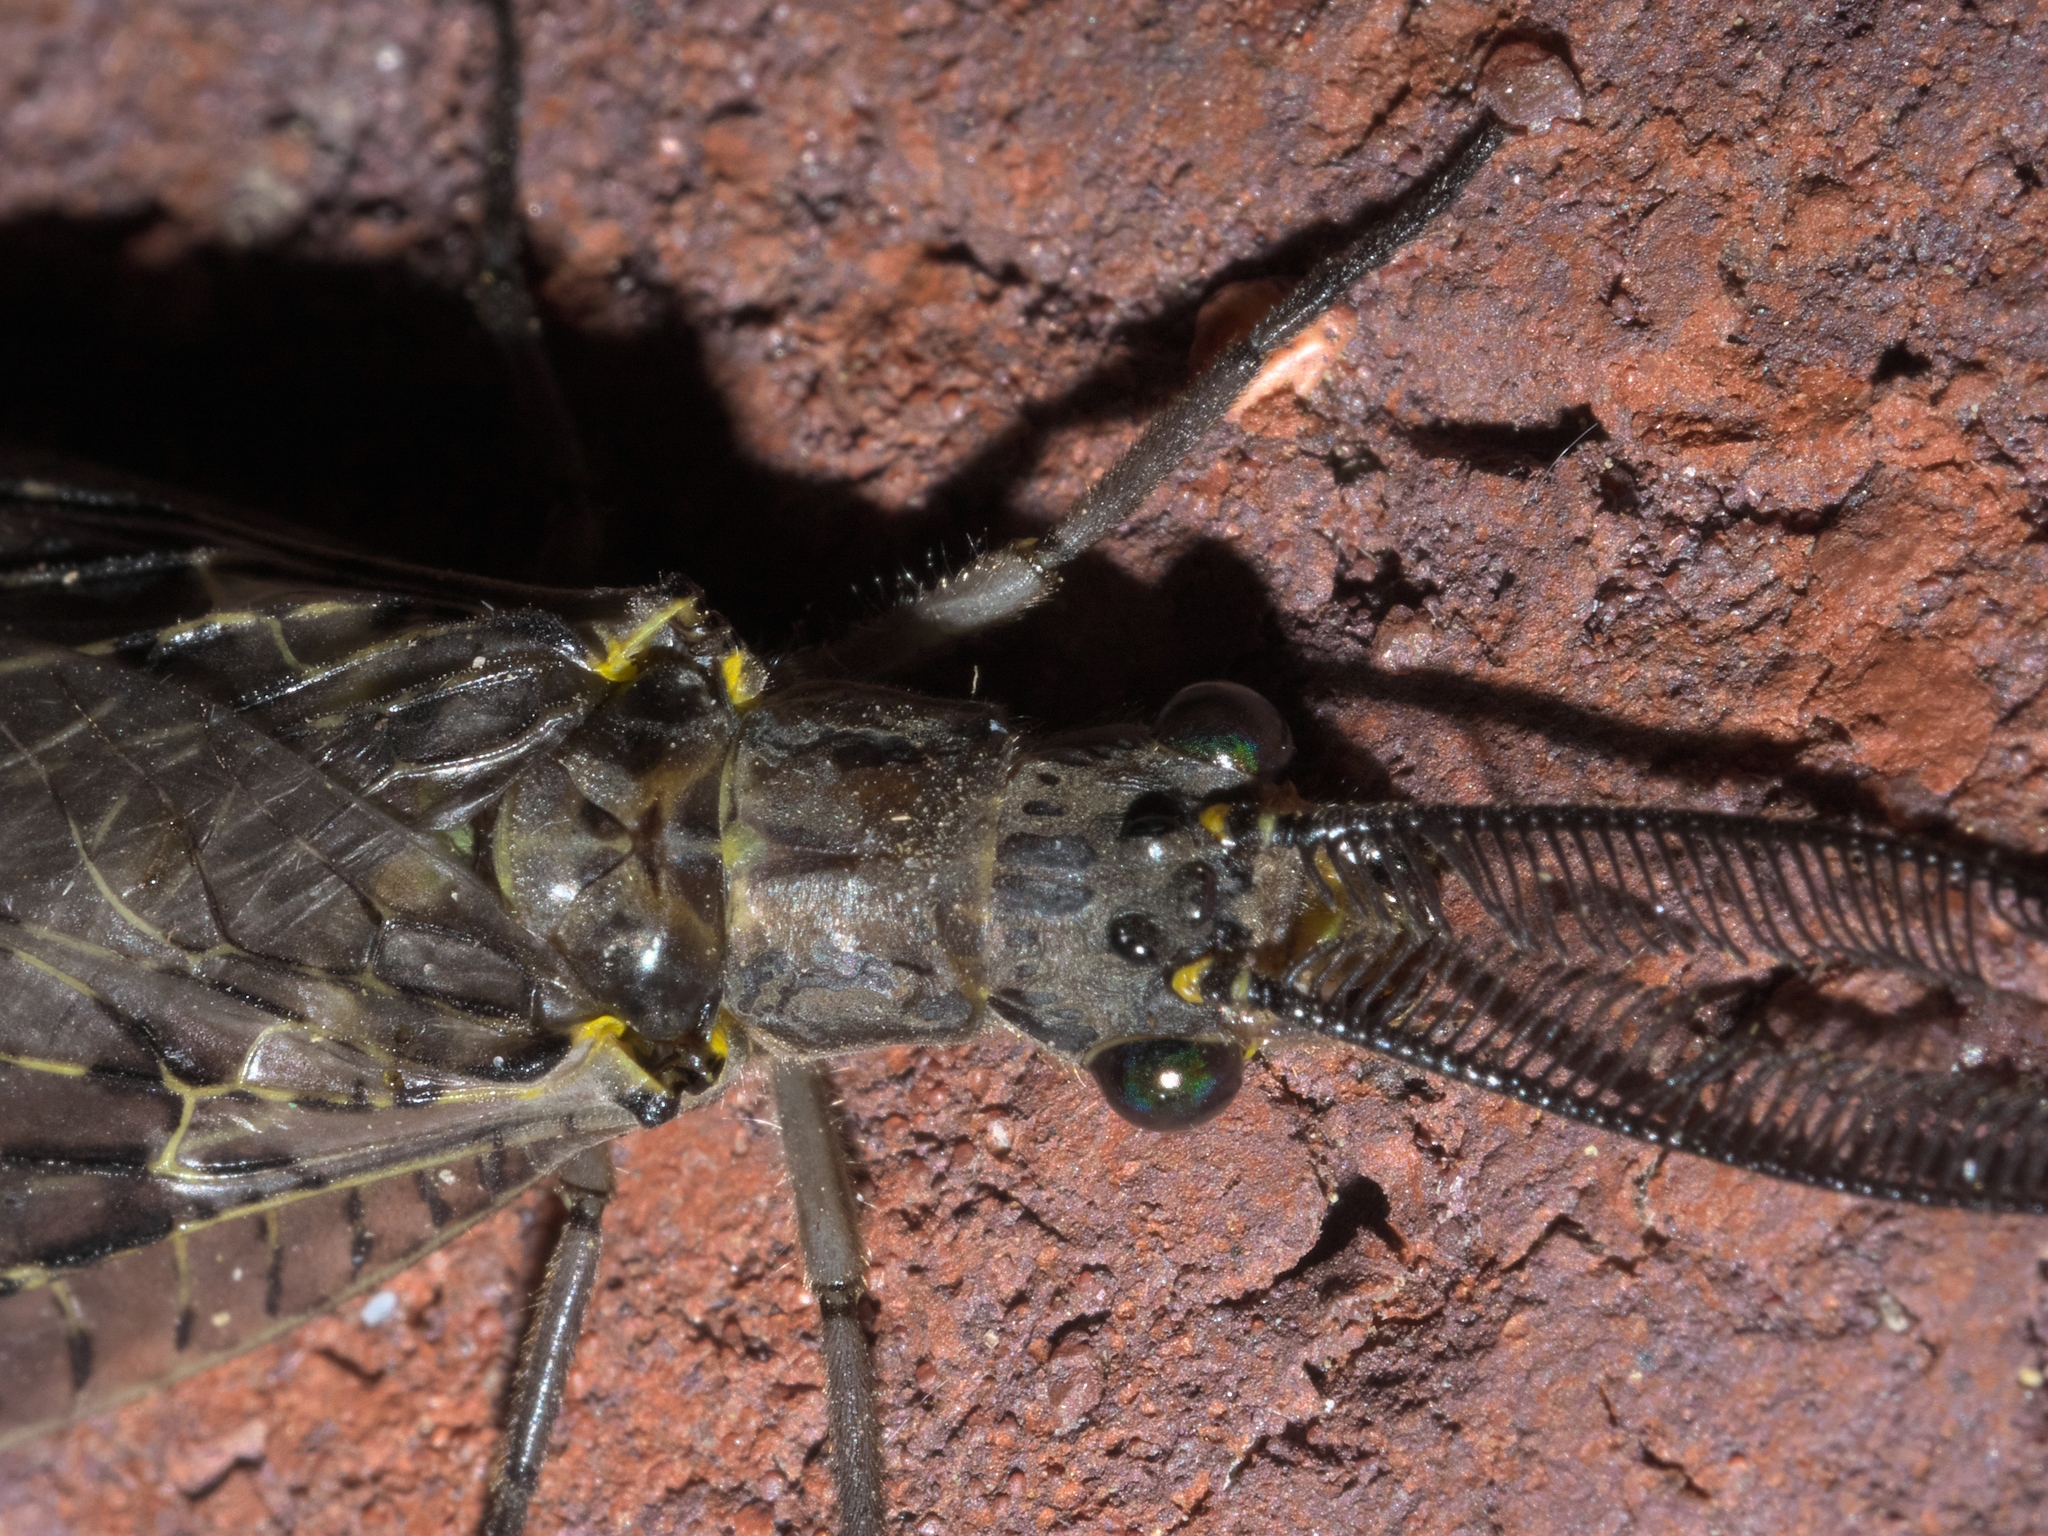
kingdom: Animalia
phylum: Arthropoda
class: Insecta
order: Megaloptera
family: Corydalidae
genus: Chauliodes
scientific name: Chauliodes rastricornis
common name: Spring fishfly
